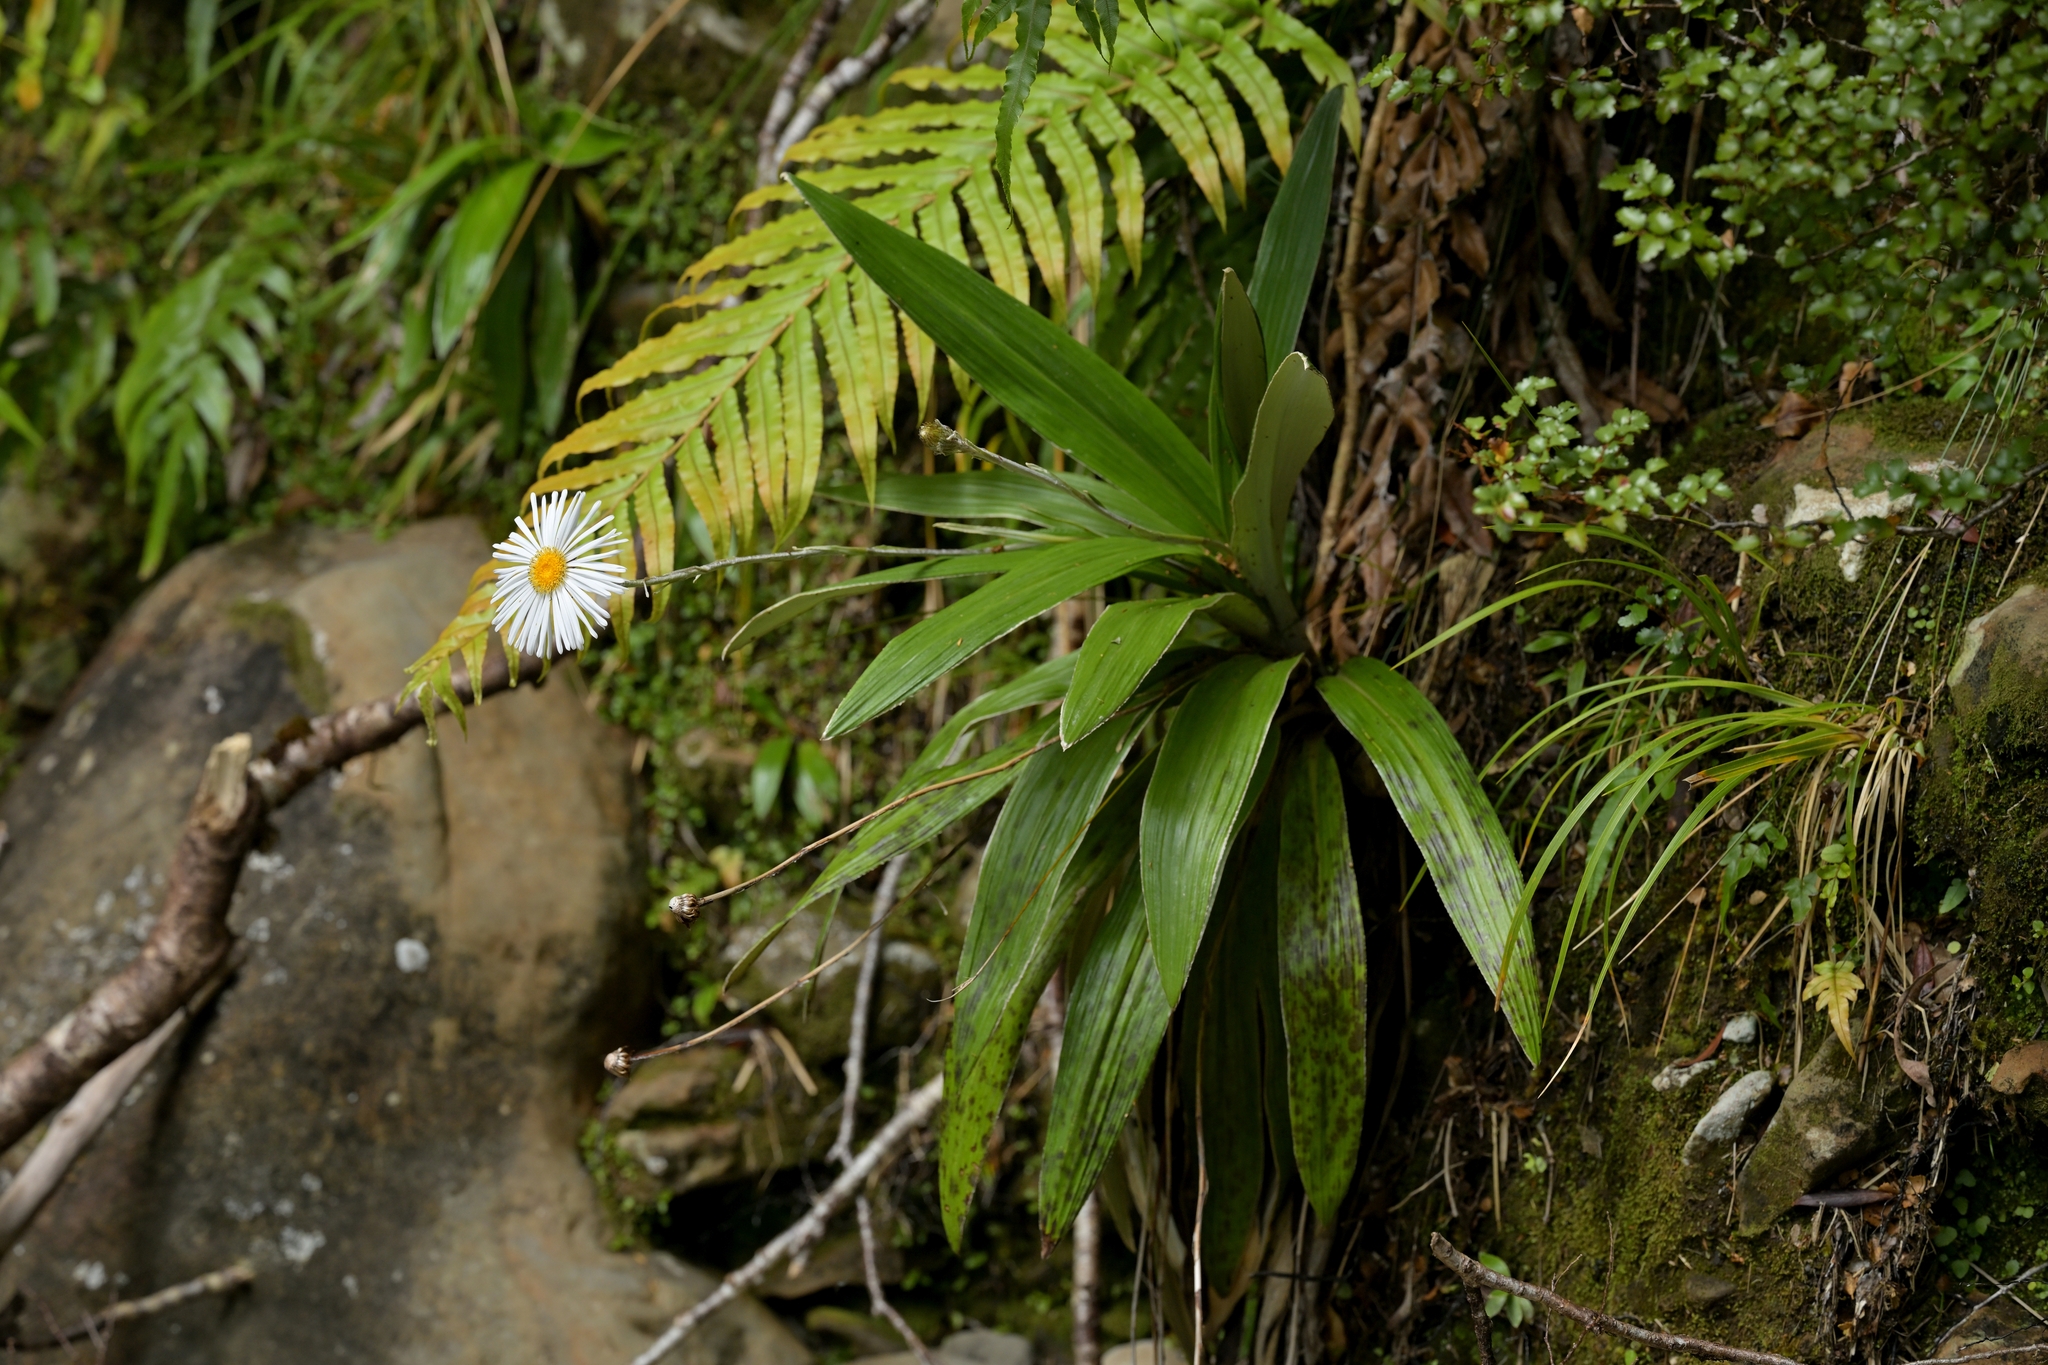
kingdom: Plantae
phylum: Tracheophyta
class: Magnoliopsida
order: Asterales
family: Asteraceae
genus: Celmisia
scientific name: Celmisia semicordata
